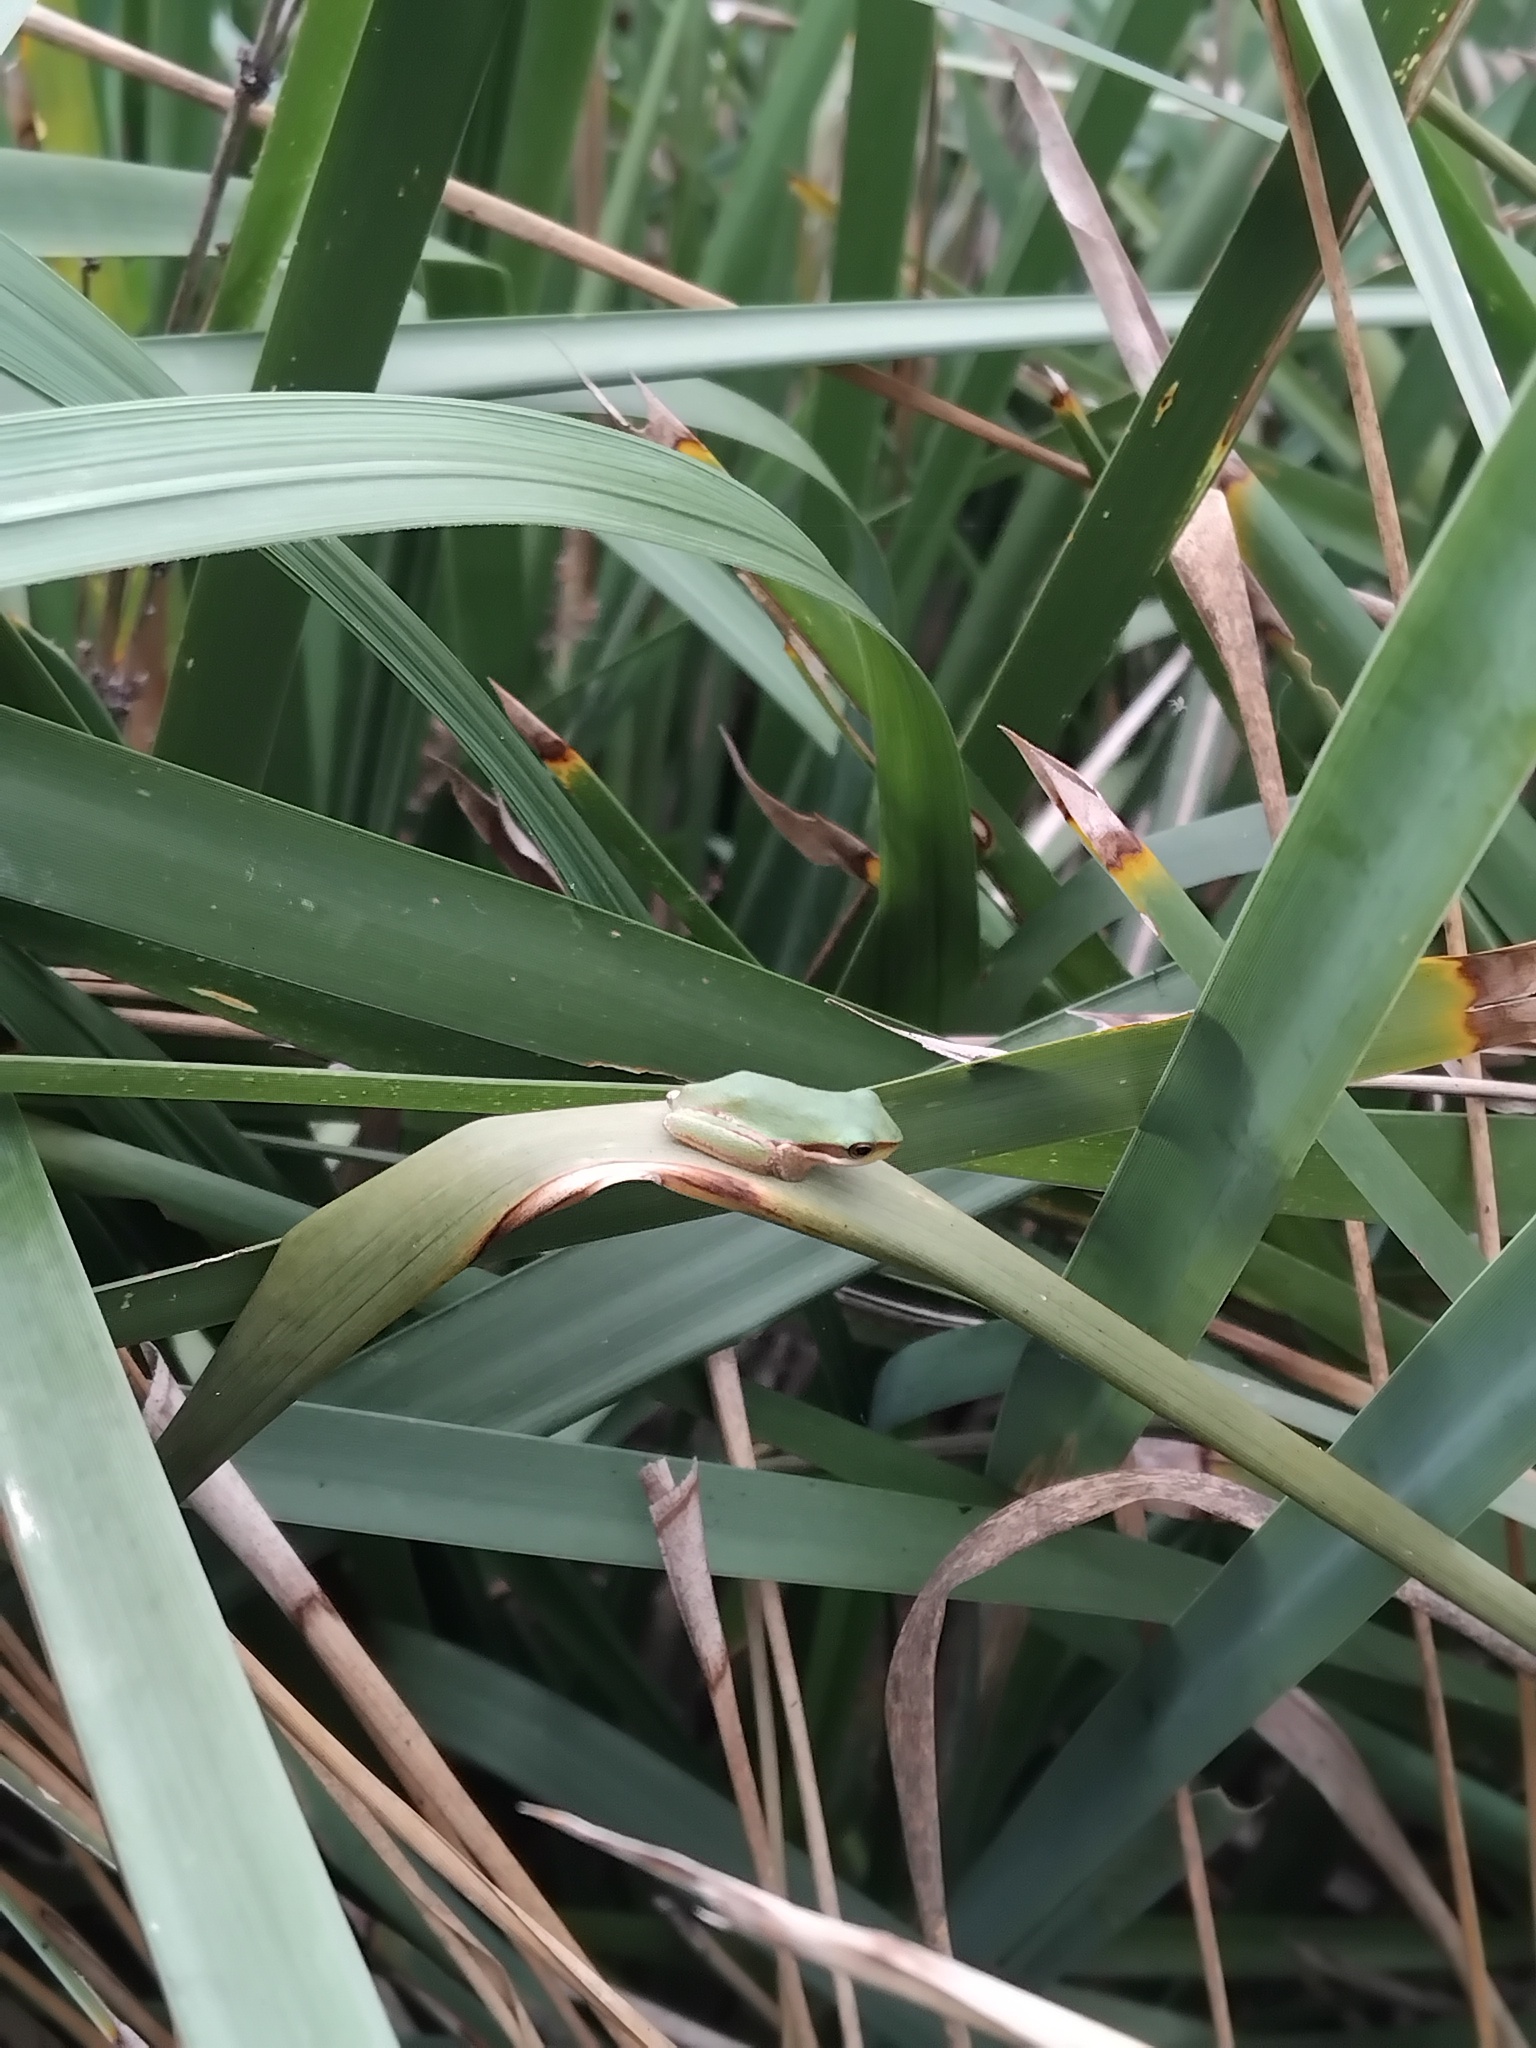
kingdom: Animalia
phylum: Chordata
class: Amphibia
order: Anura
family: Pelodryadidae
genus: Litoria
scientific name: Litoria fallax
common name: Eastern dwarf treefrog
